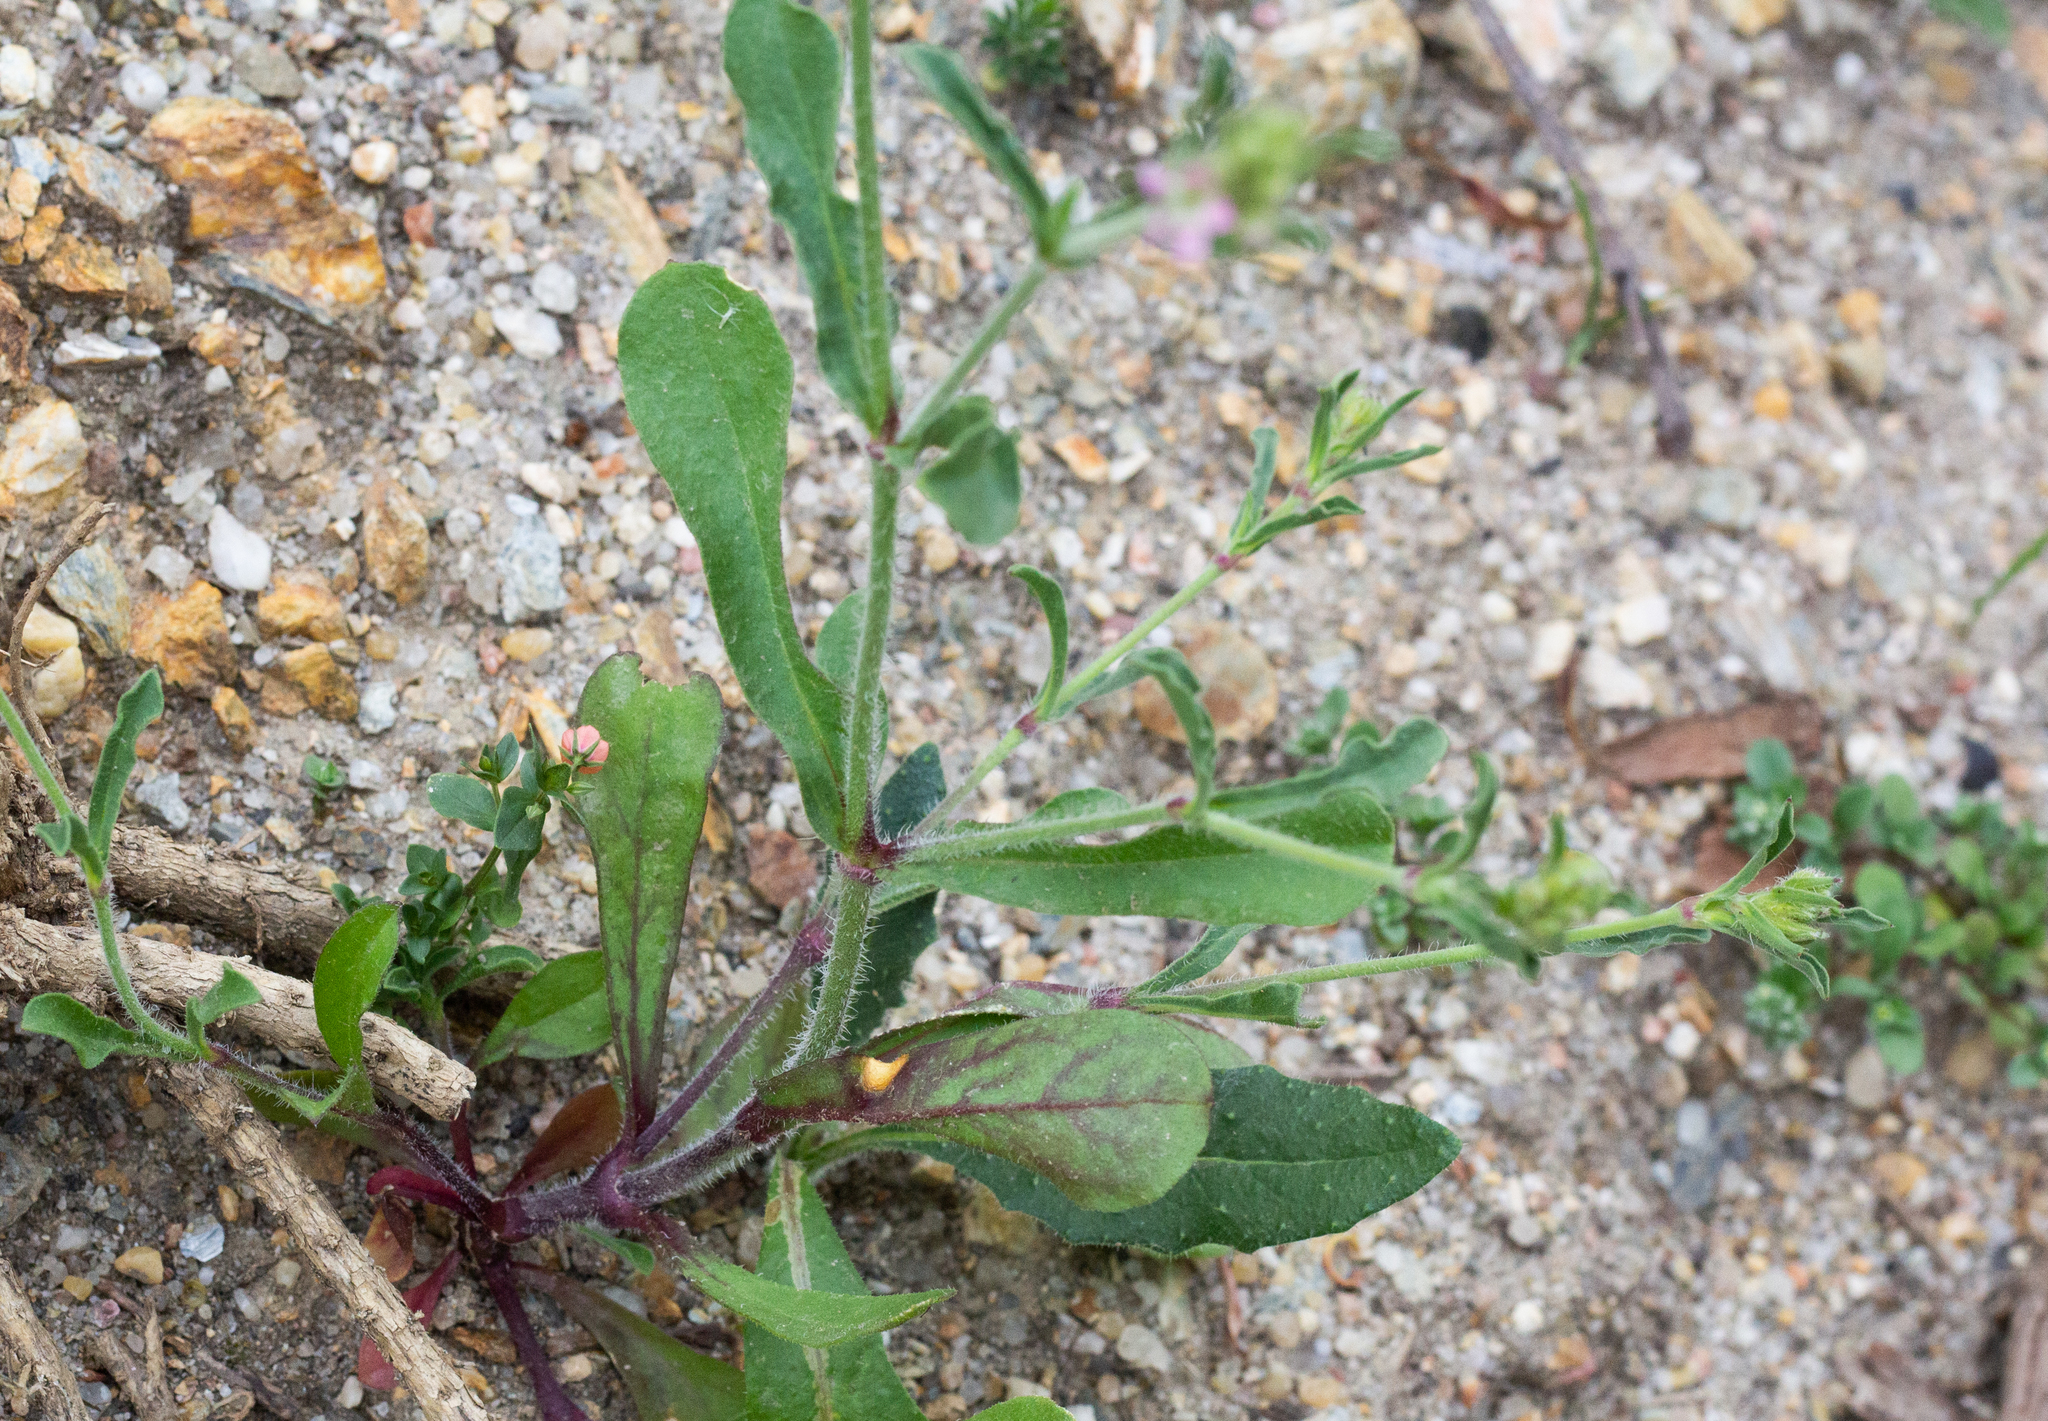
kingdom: Plantae
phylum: Tracheophyta
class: Magnoliopsida
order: Caryophyllales
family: Caryophyllaceae
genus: Silene
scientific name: Silene gallica
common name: Small-flowered catchfly
